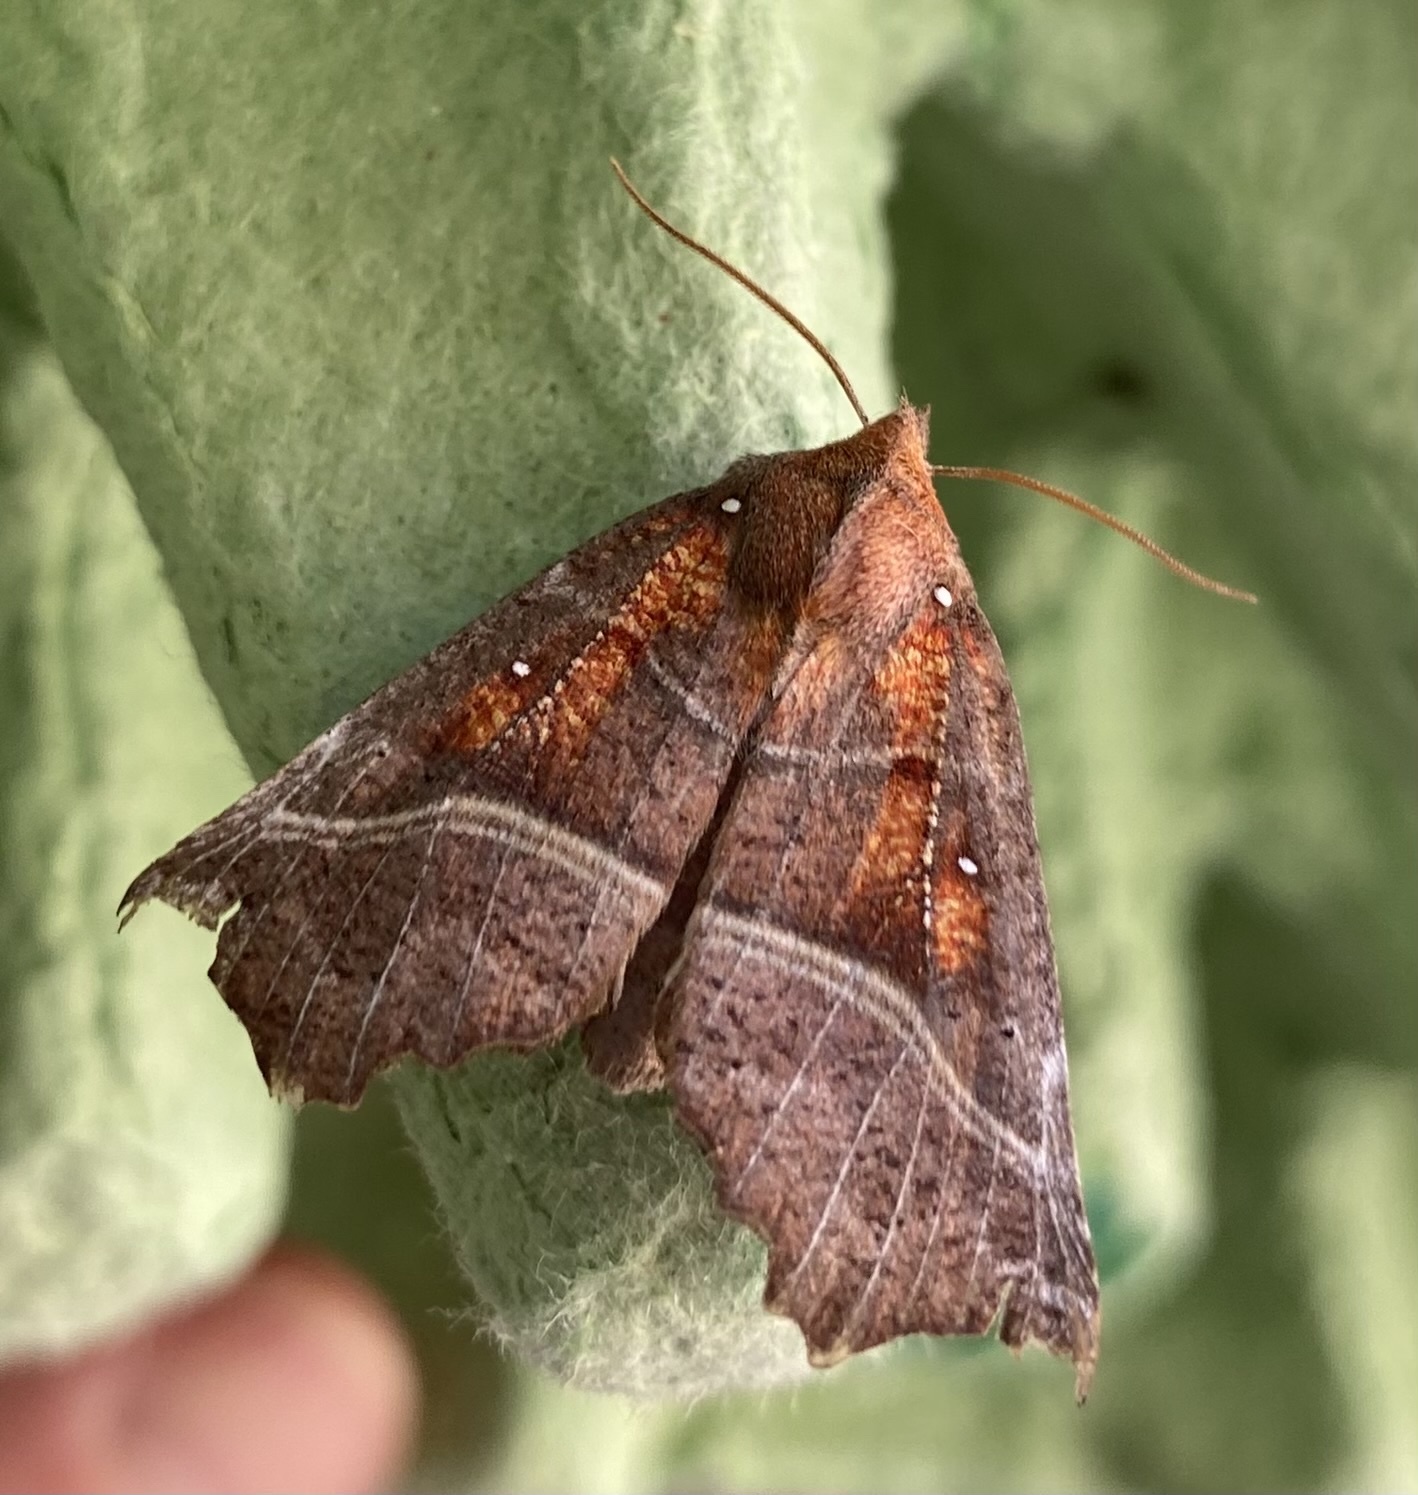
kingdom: Animalia
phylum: Arthropoda
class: Insecta
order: Lepidoptera
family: Erebidae
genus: Scoliopteryx
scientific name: Scoliopteryx libatrix
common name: Herald
